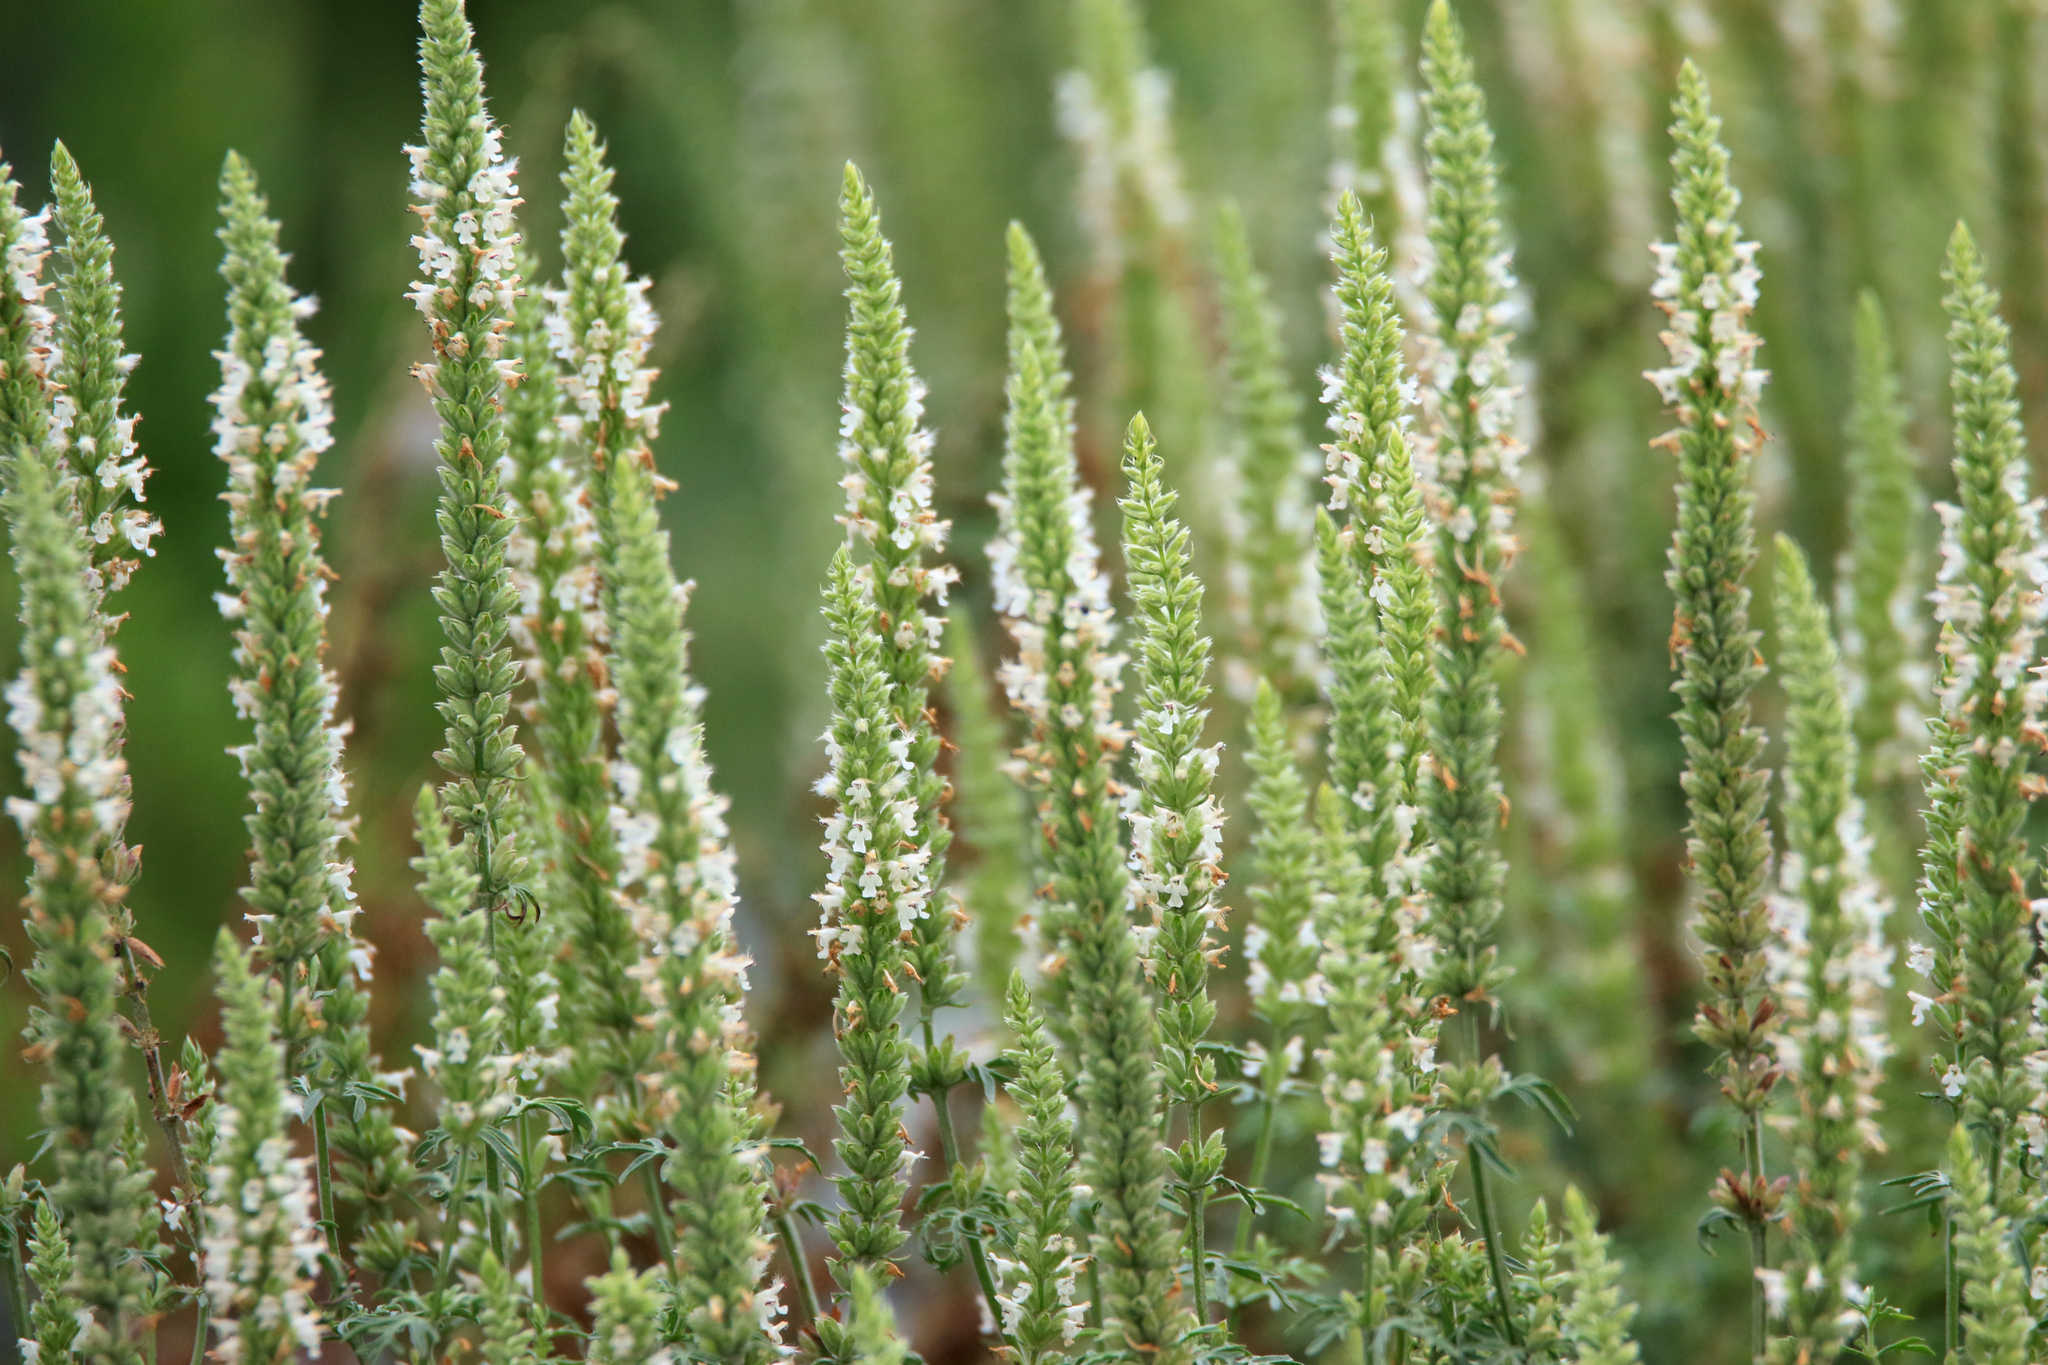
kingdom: Plantae
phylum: Tracheophyta
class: Magnoliopsida
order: Lamiales
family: Lamiaceae
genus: Nepeta
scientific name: Nepeta annua
